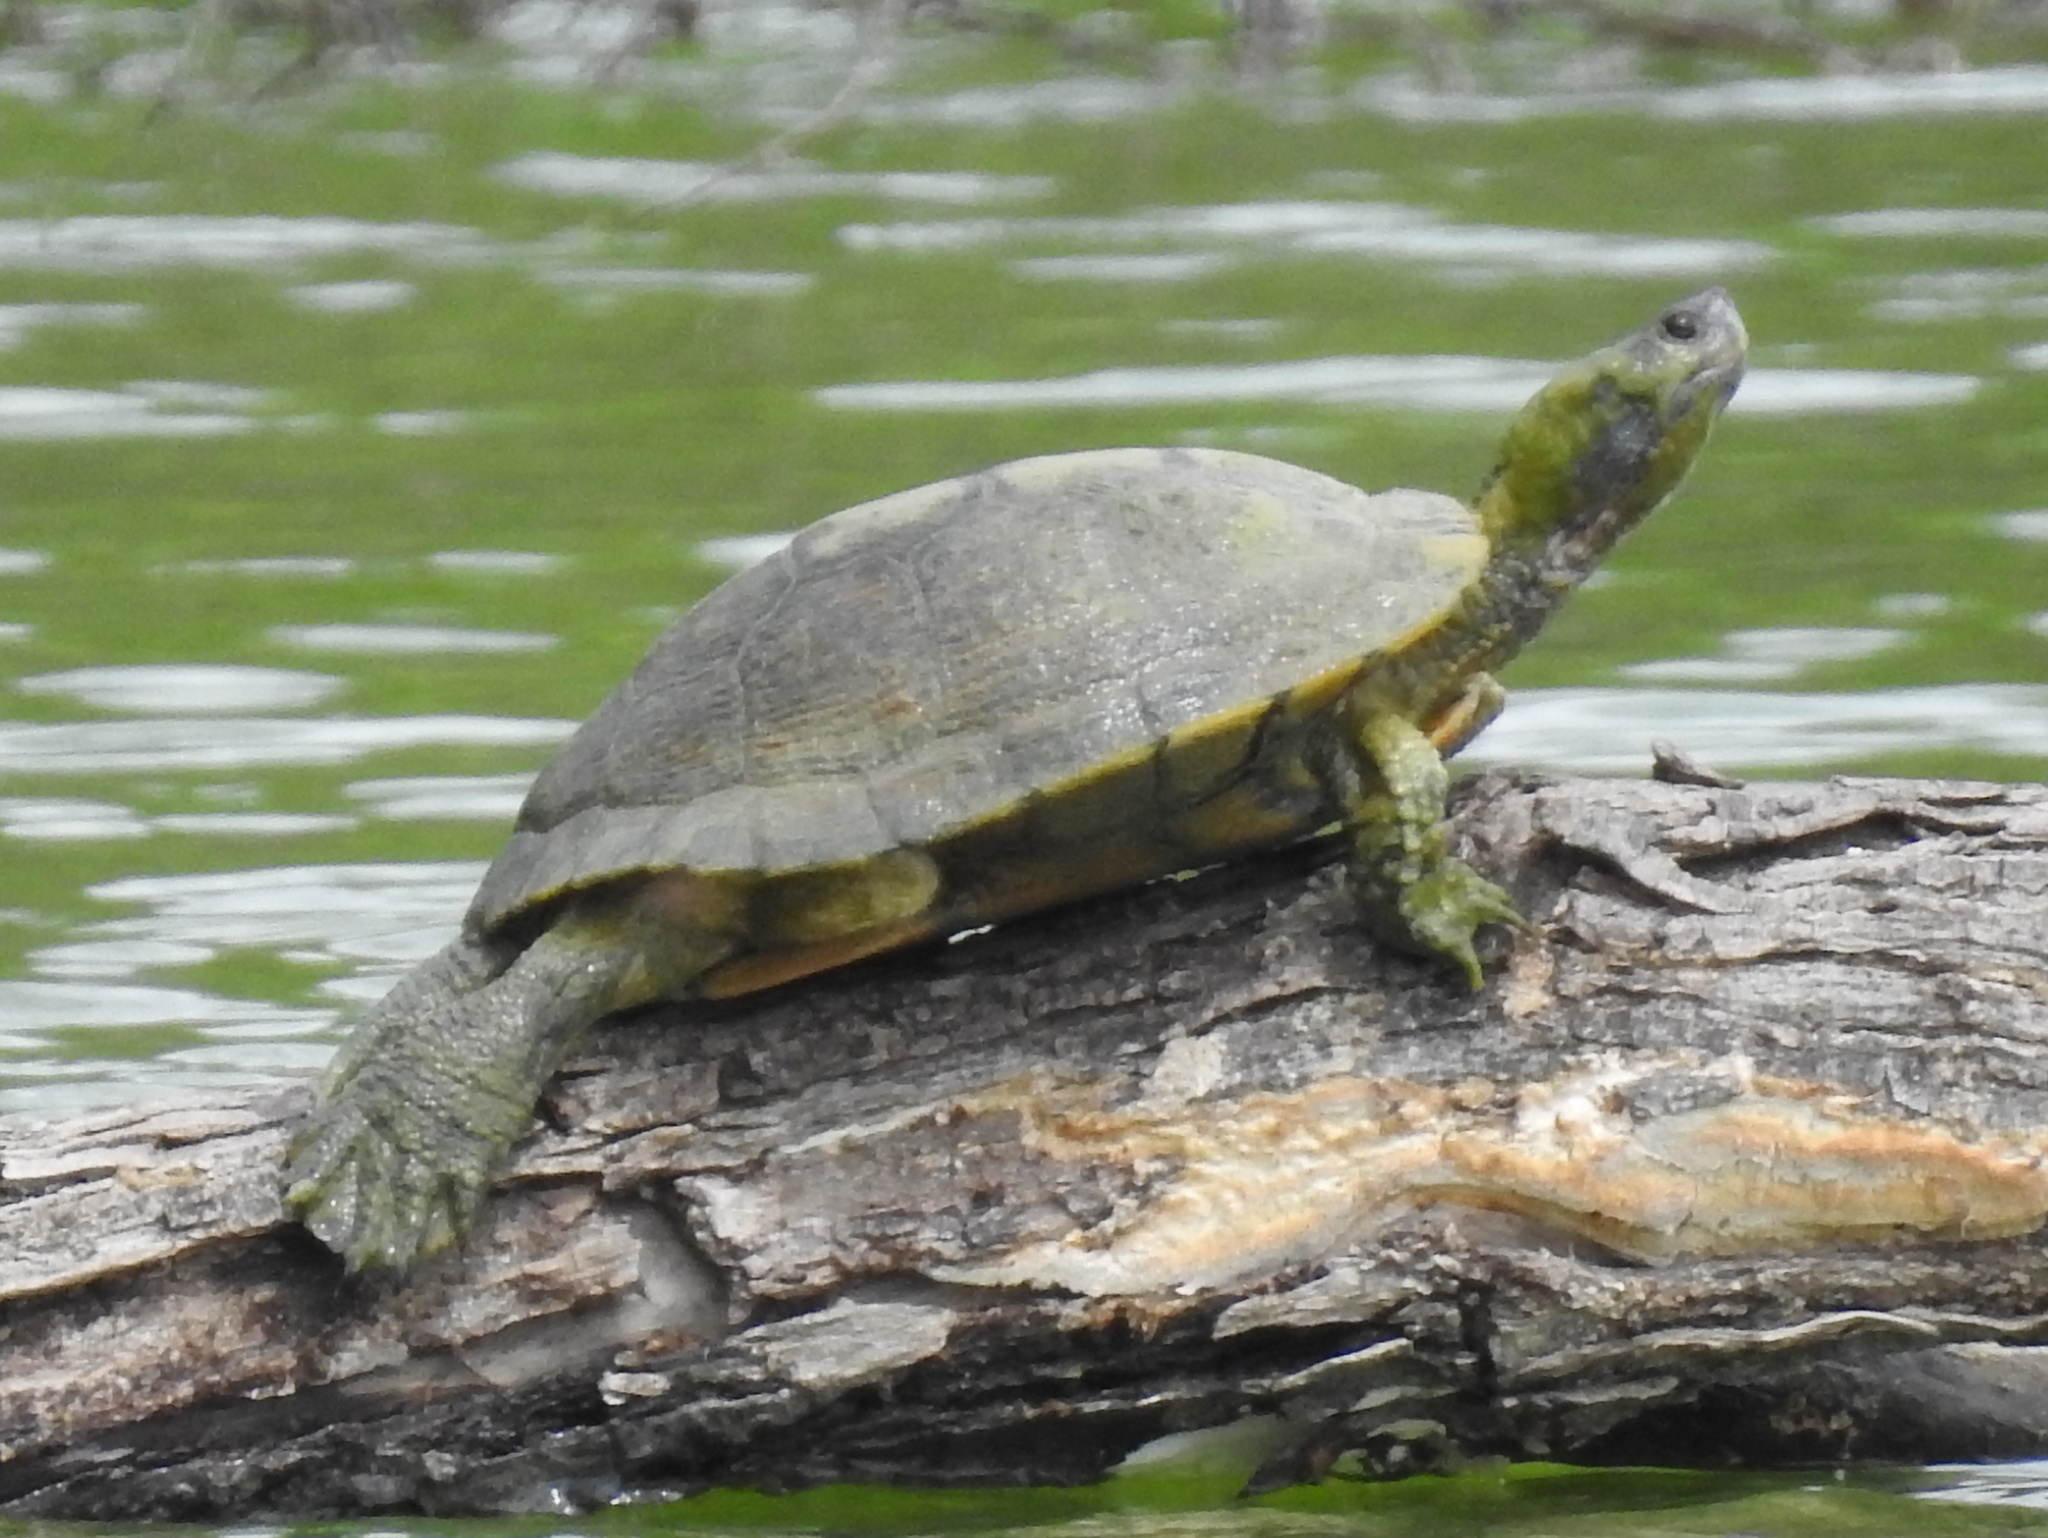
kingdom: Animalia
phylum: Chordata
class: Testudines
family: Emydidae
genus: Trachemys
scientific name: Trachemys scripta
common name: Slider
